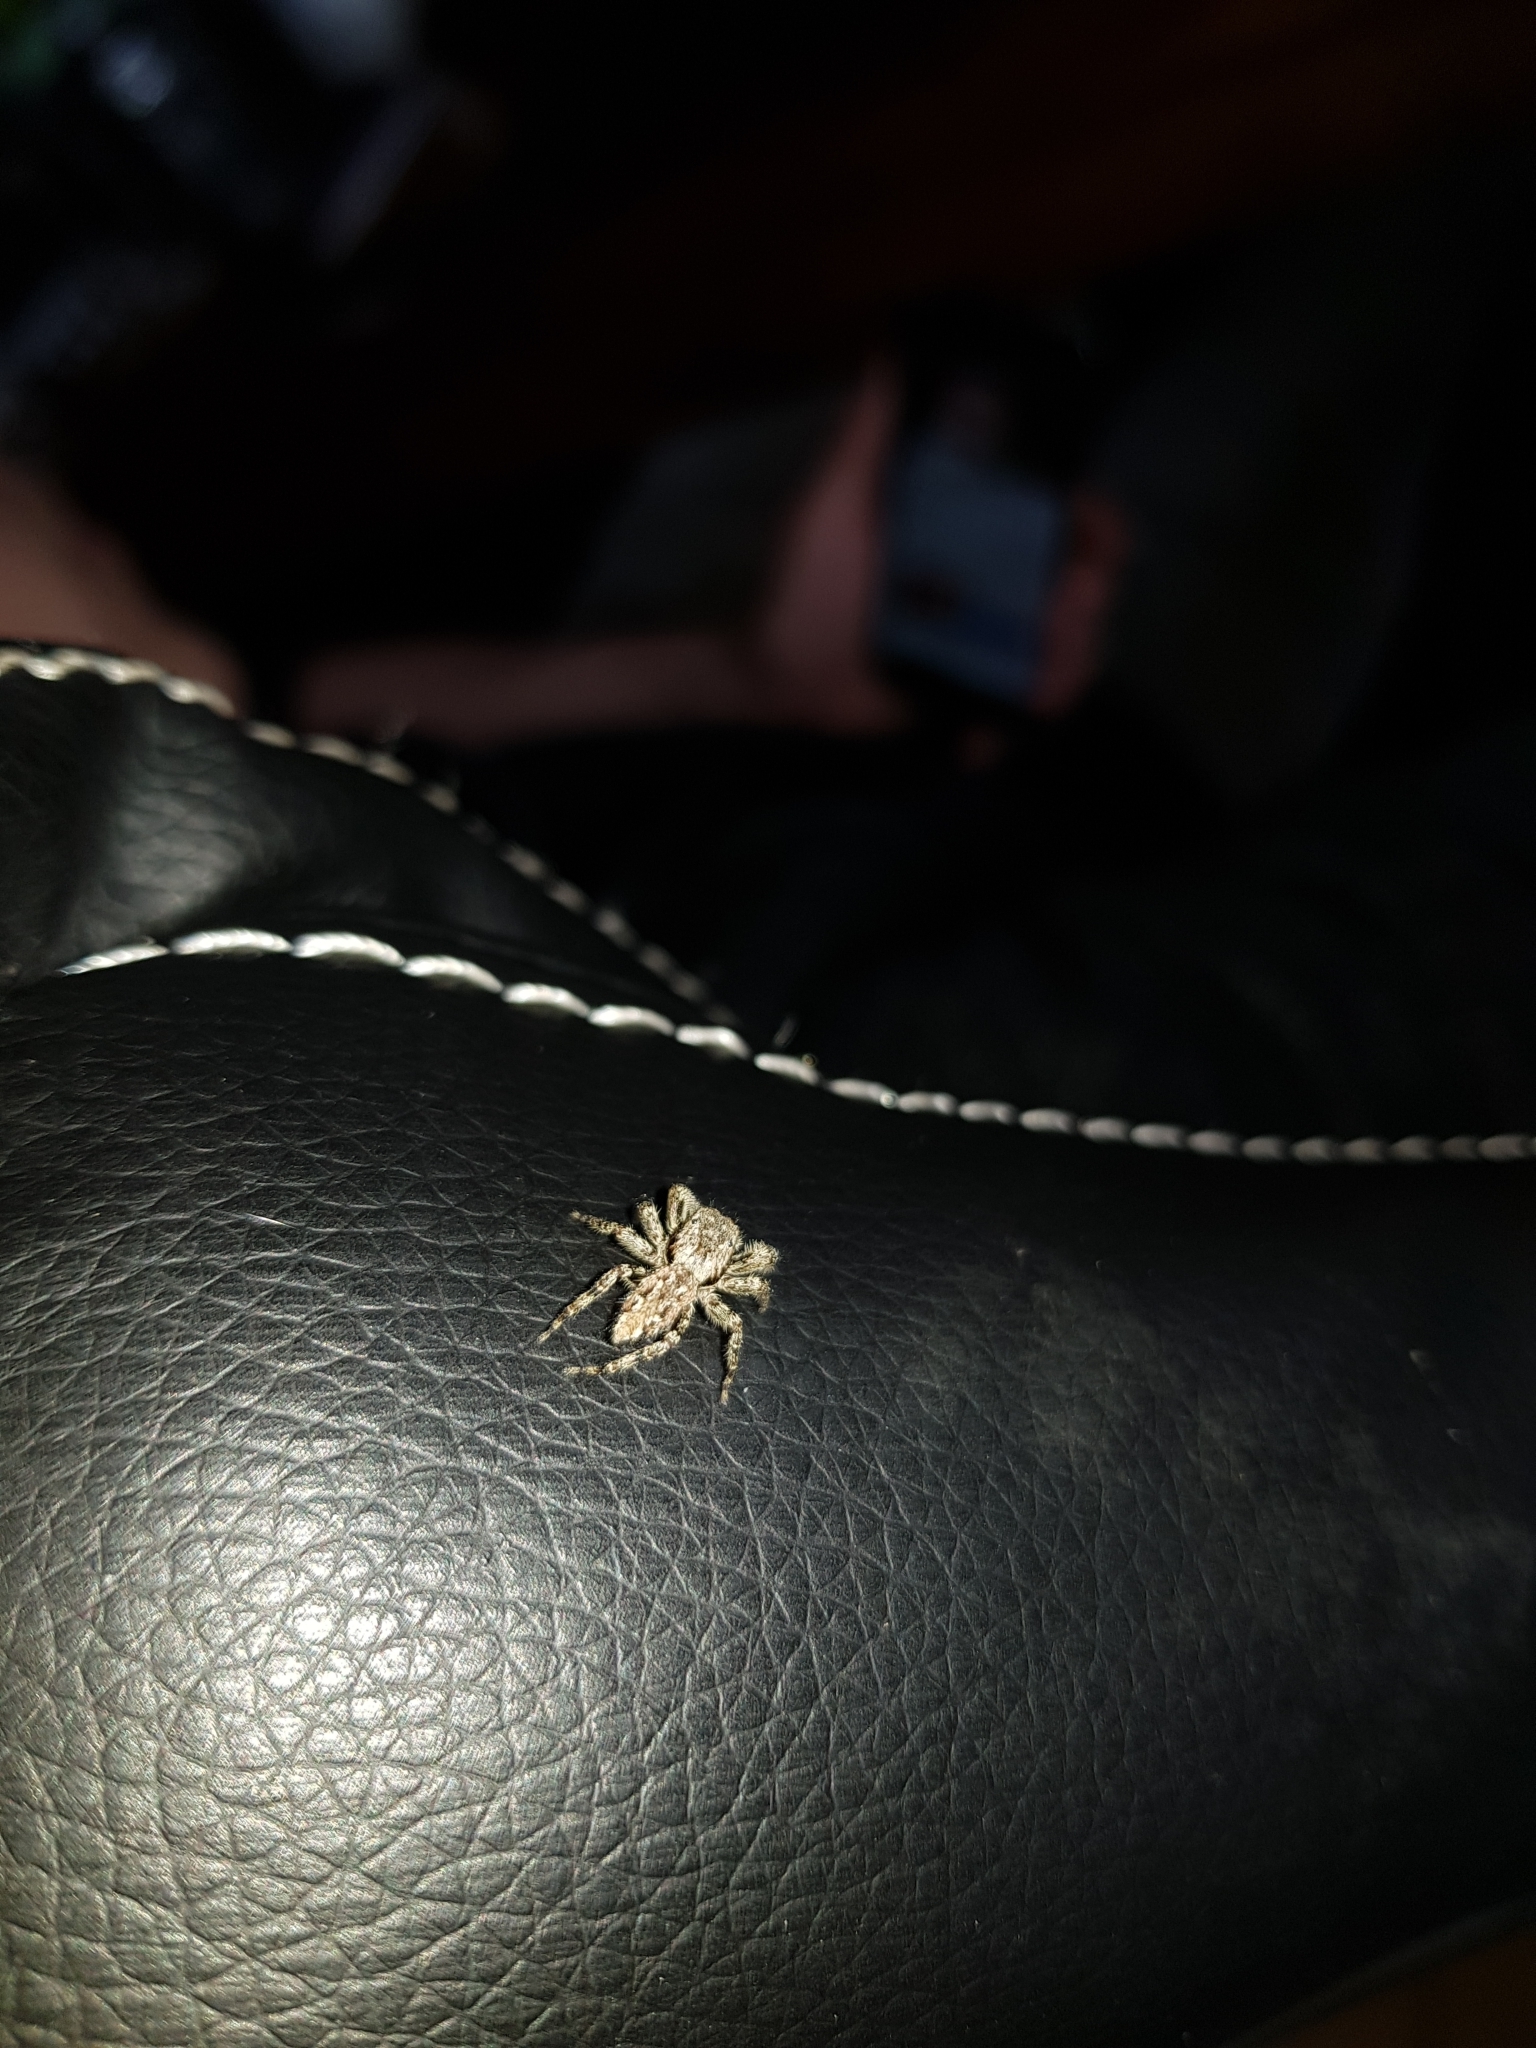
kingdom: Animalia
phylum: Arthropoda
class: Arachnida
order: Araneae
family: Salticidae
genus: Marpissa
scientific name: Marpissa muscosa
